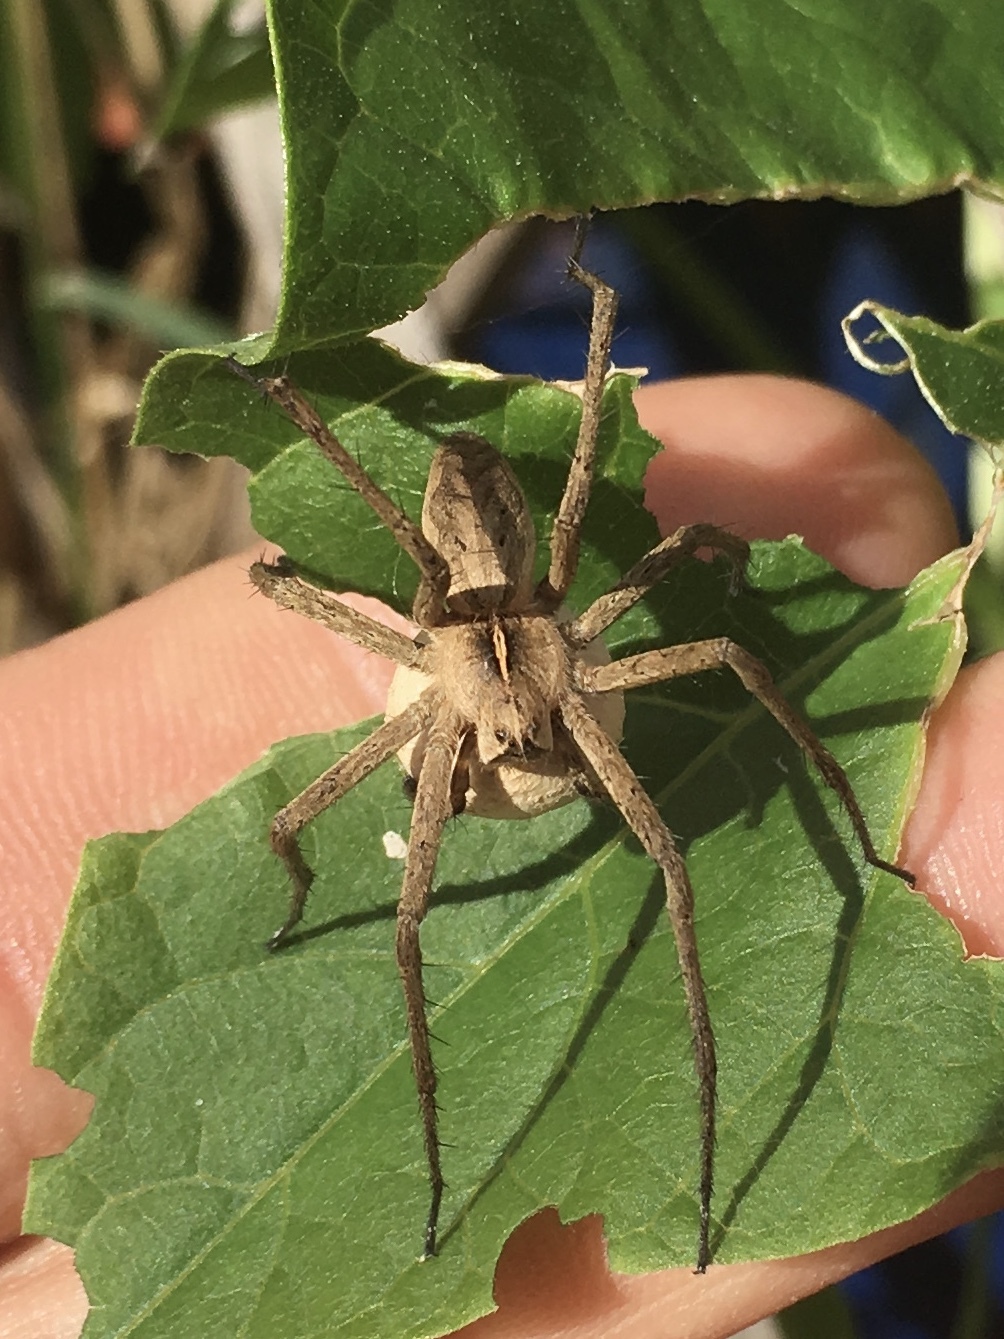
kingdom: Animalia
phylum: Arthropoda
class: Arachnida
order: Araneae
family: Pisauridae
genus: Pisaura
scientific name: Pisaura mirabilis
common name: Tent spider
